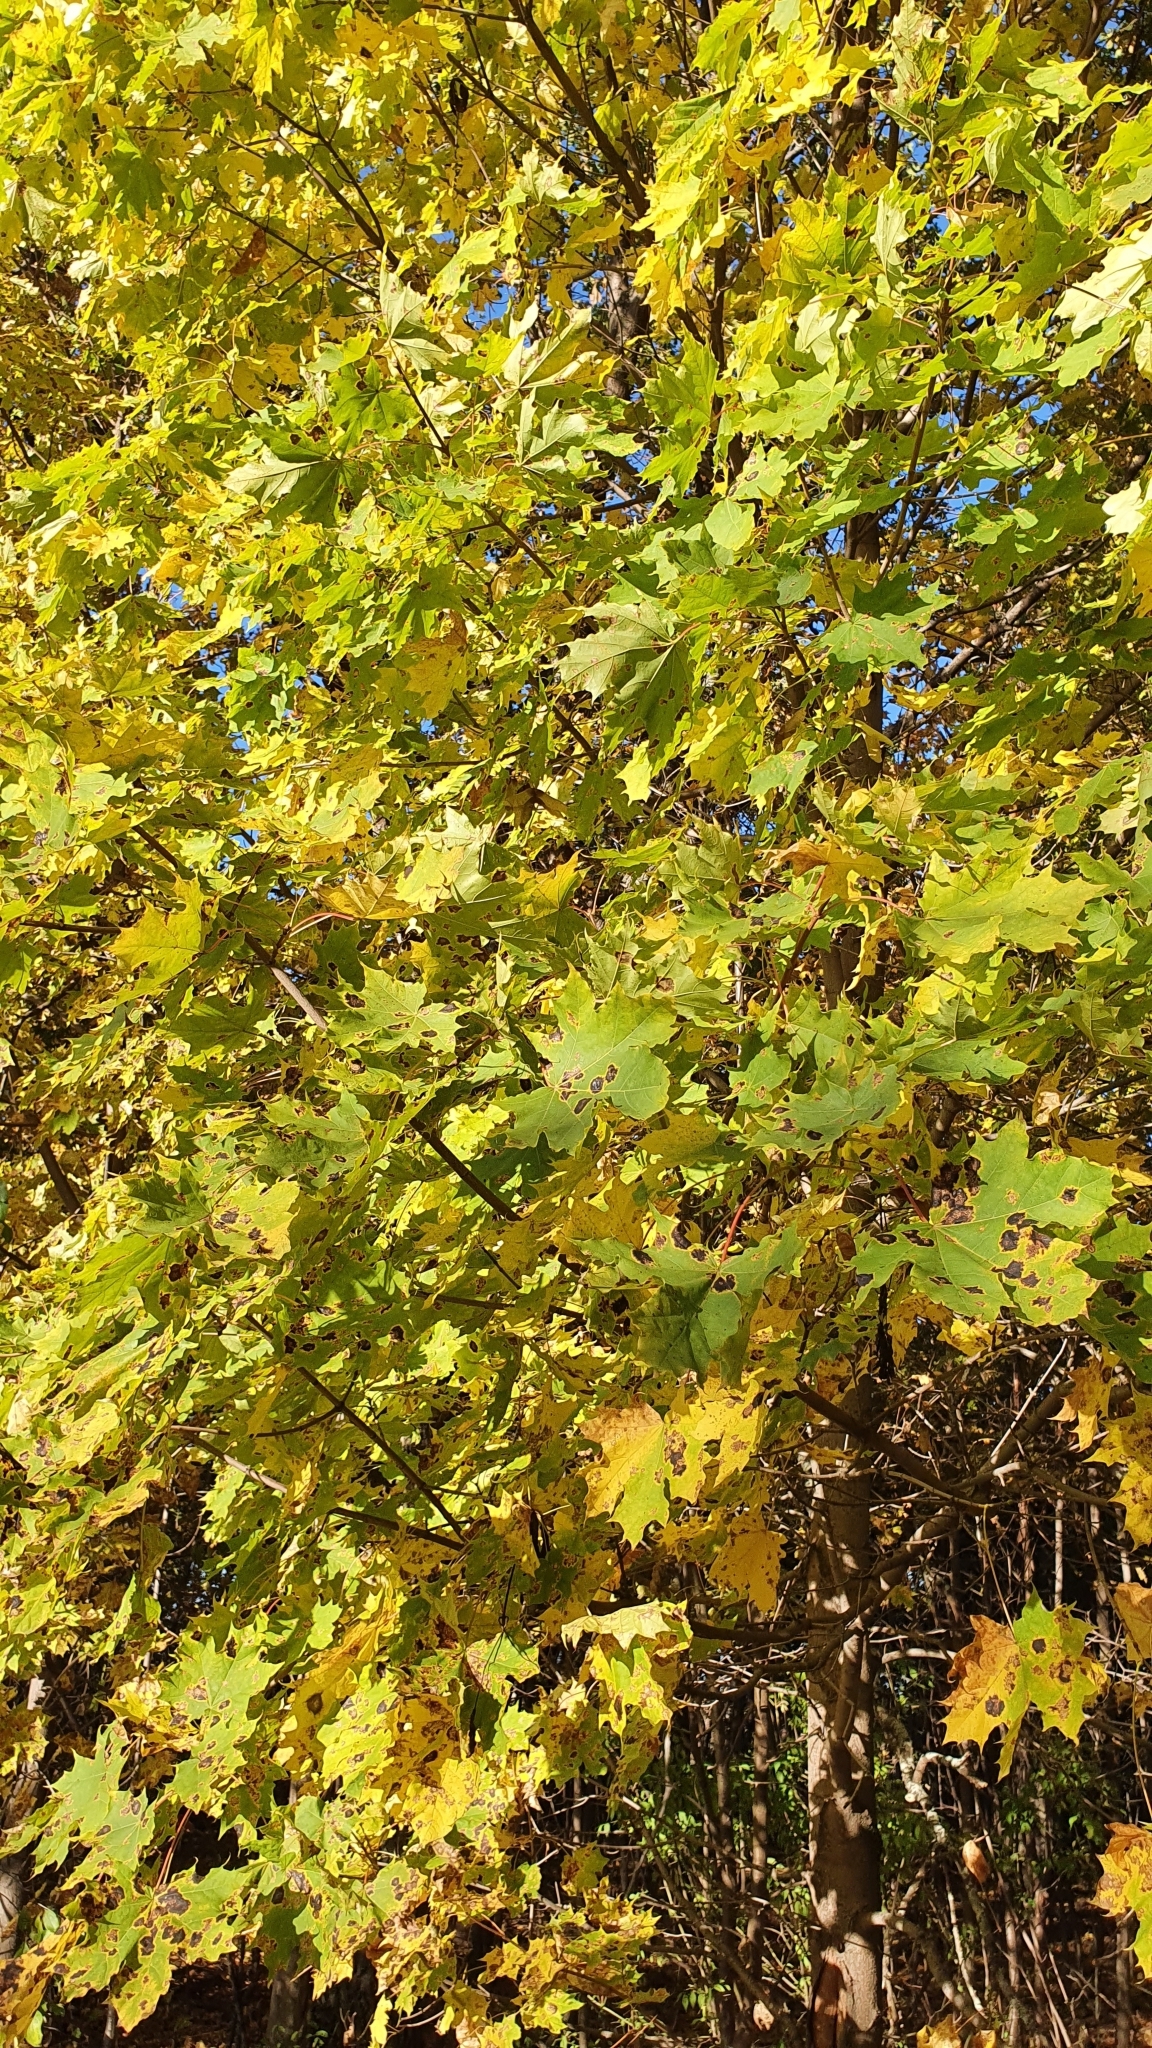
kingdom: Plantae
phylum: Tracheophyta
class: Magnoliopsida
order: Sapindales
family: Sapindaceae
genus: Acer
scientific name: Acer platanoides
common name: Norway maple
